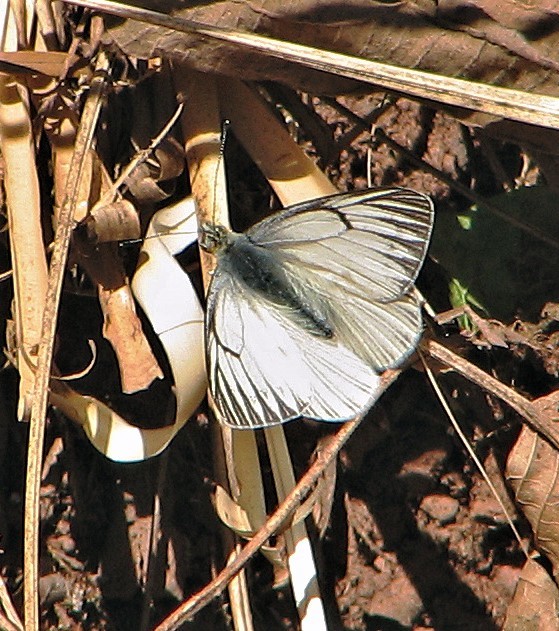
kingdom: Animalia
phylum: Arthropoda
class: Insecta
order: Lepidoptera
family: Pieridae
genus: Tatochila
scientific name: Tatochila orthodice
